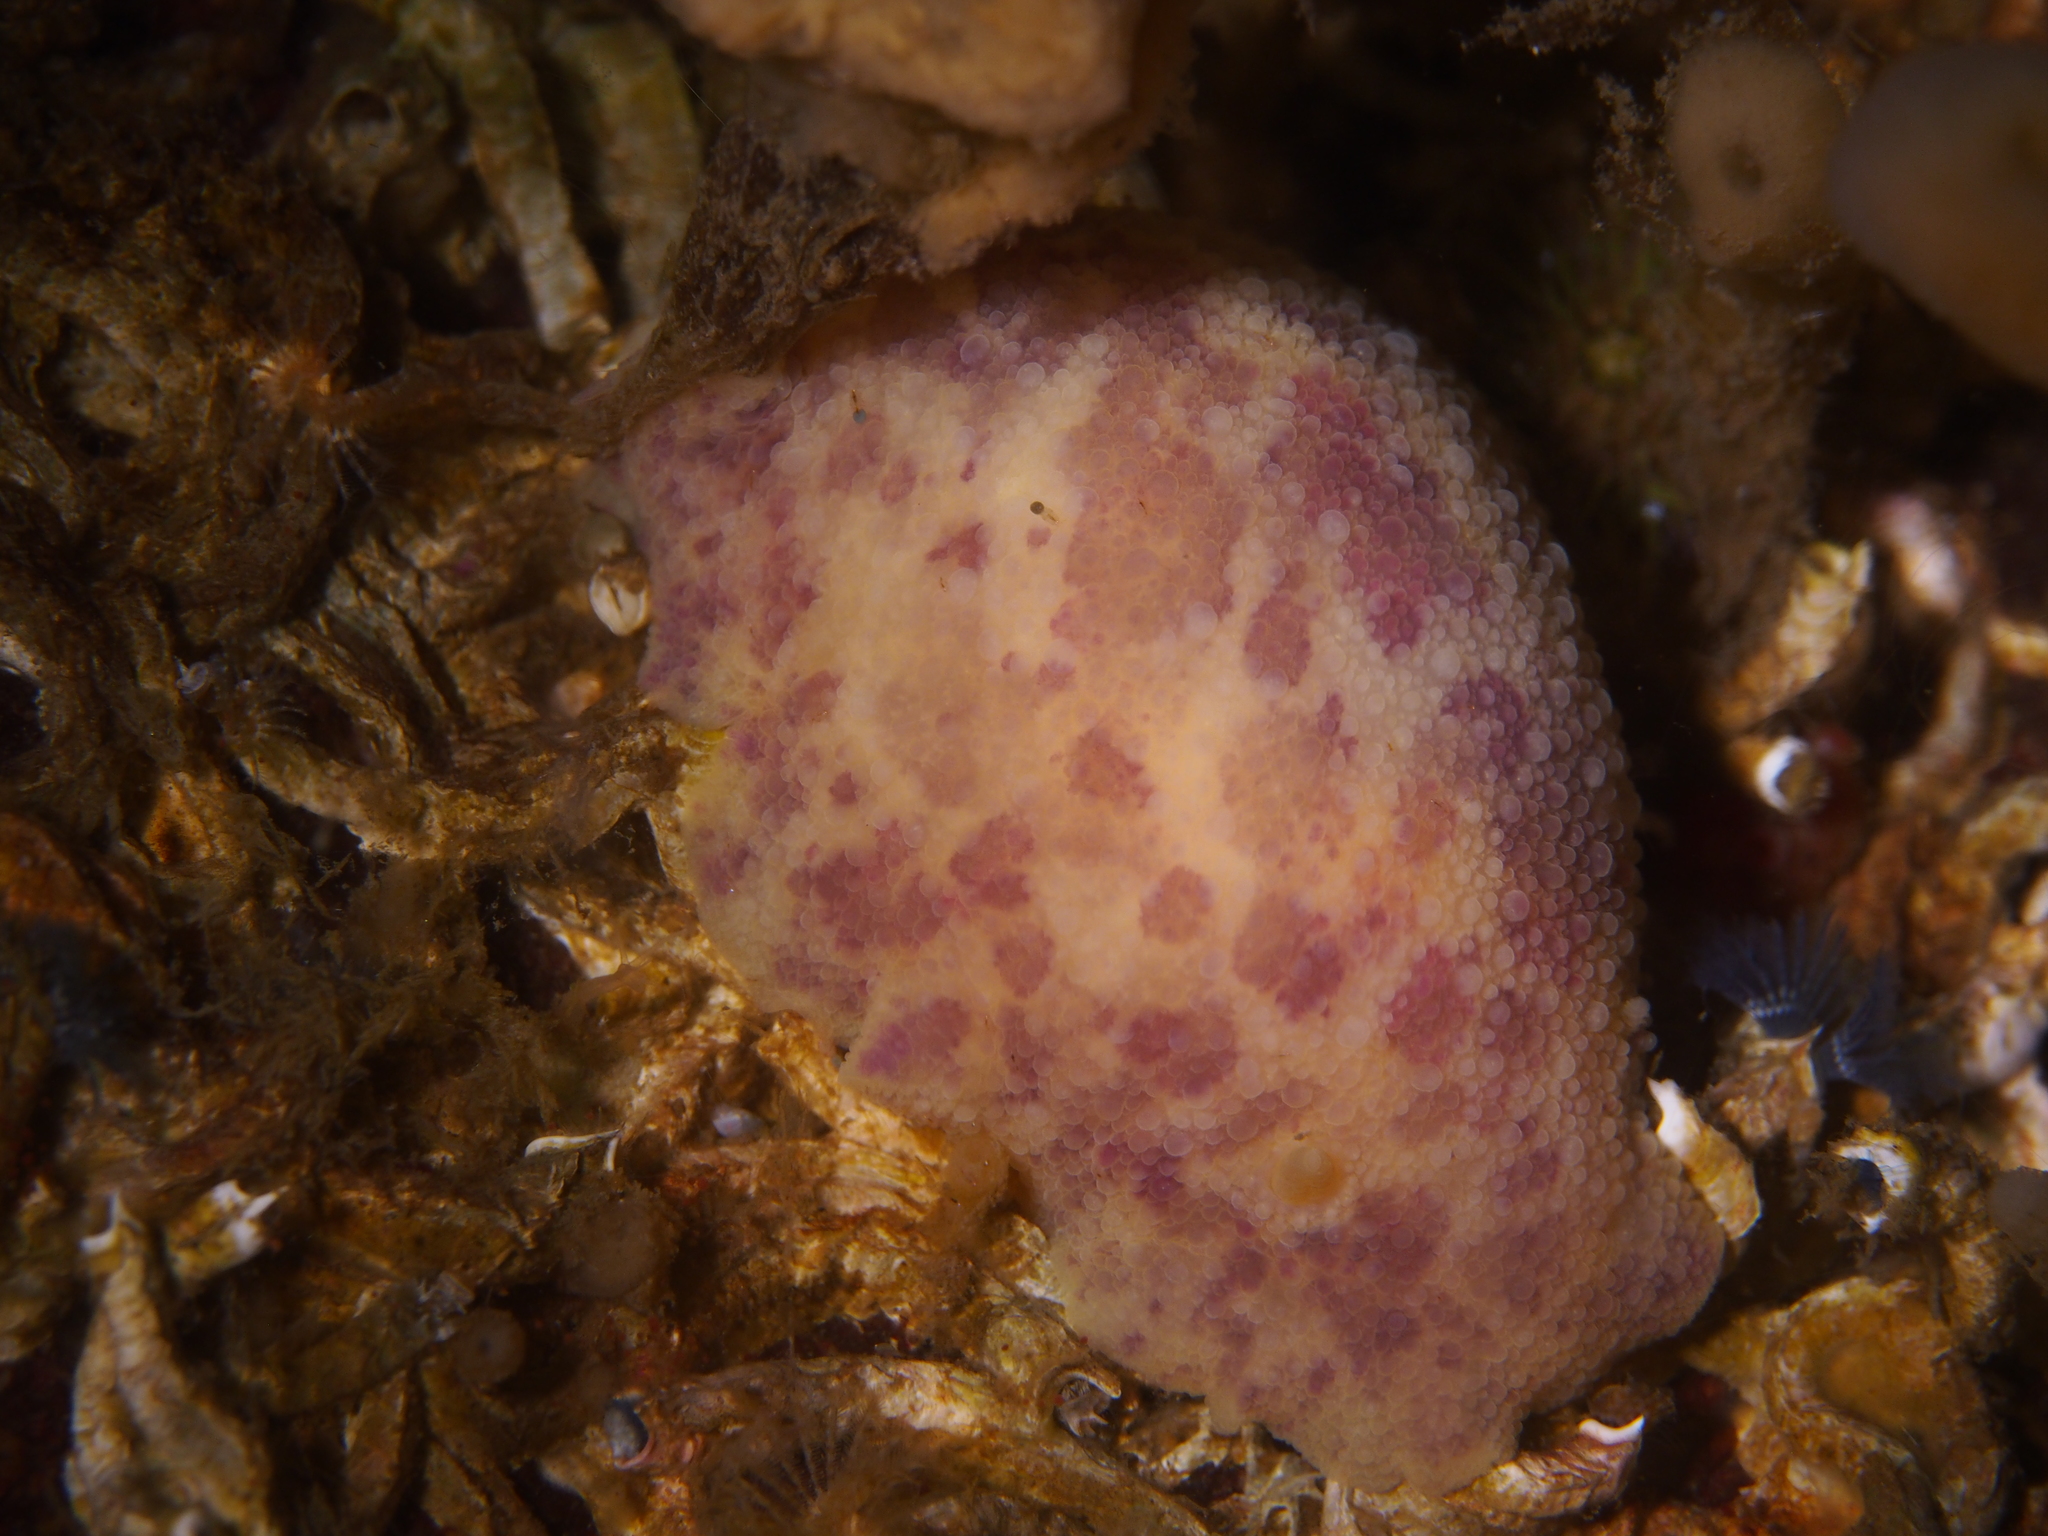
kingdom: Animalia
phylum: Mollusca
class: Gastropoda
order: Nudibranchia
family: Dorididae
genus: Doris
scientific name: Doris pseudoargus
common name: Sea lemon
